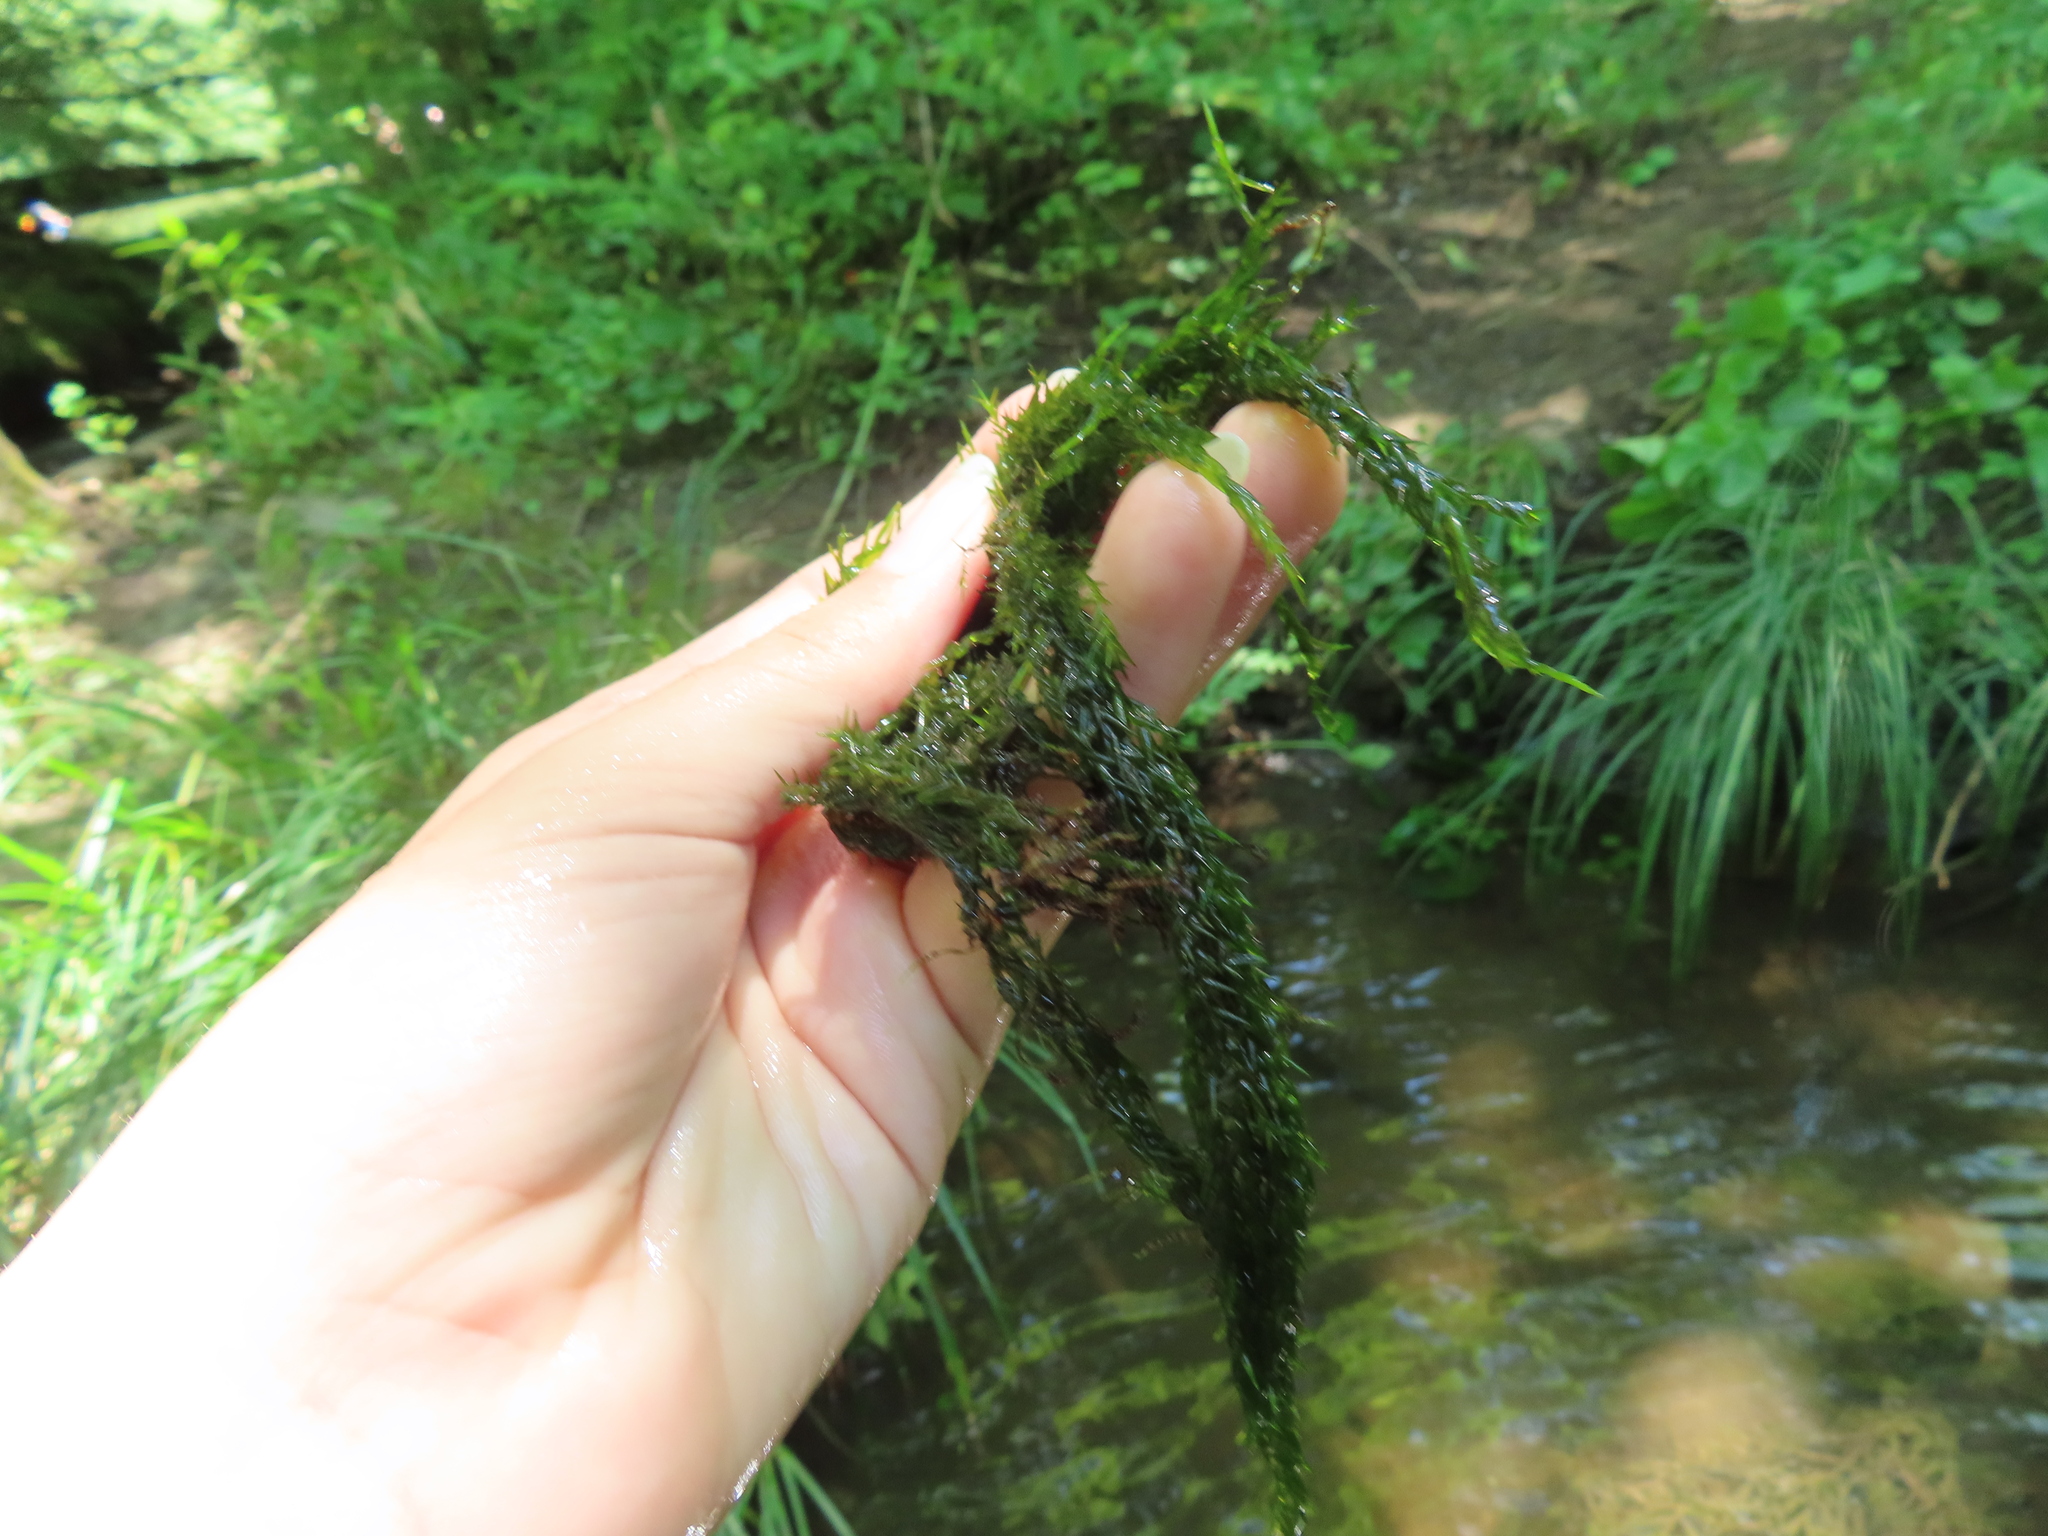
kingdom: Plantae
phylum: Bryophyta
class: Bryopsida
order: Hypnales
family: Fontinalaceae
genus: Fontinalis
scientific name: Fontinalis novae-angliae
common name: New england water moss
